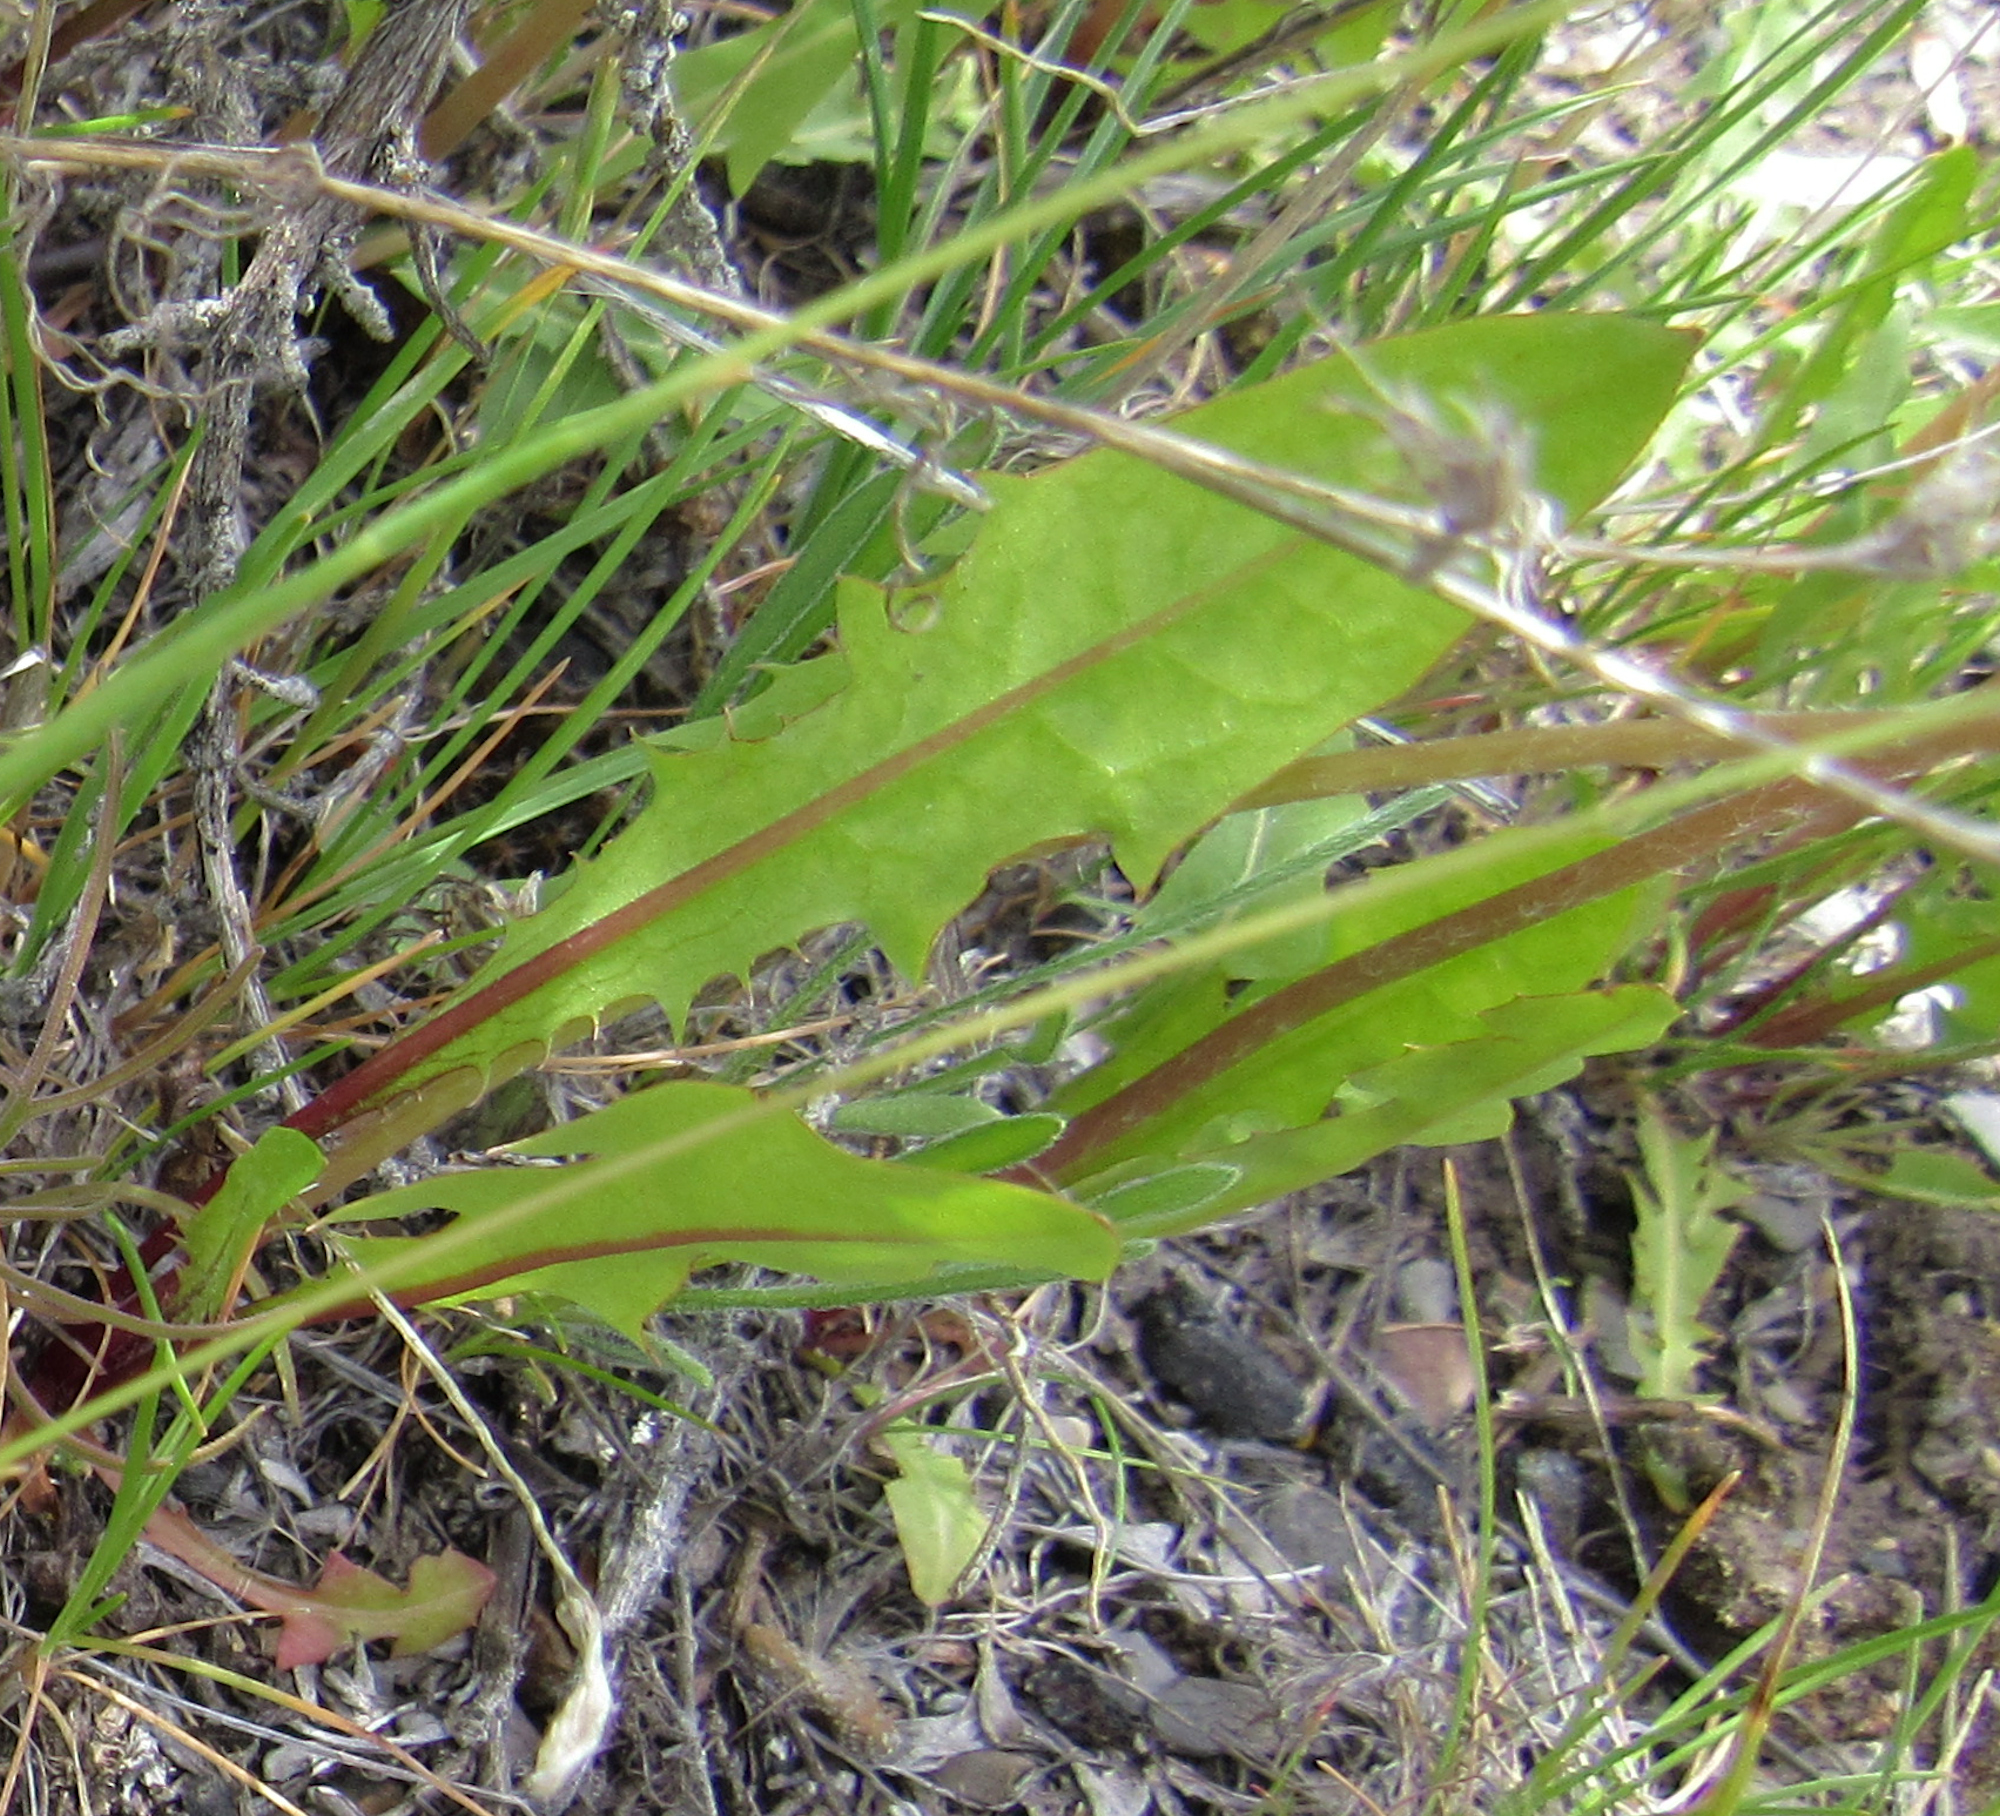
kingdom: Plantae
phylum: Tracheophyta
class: Magnoliopsida
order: Asterales
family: Asteraceae
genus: Taraxacum
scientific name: Taraxacum officinale
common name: Common dandelion
